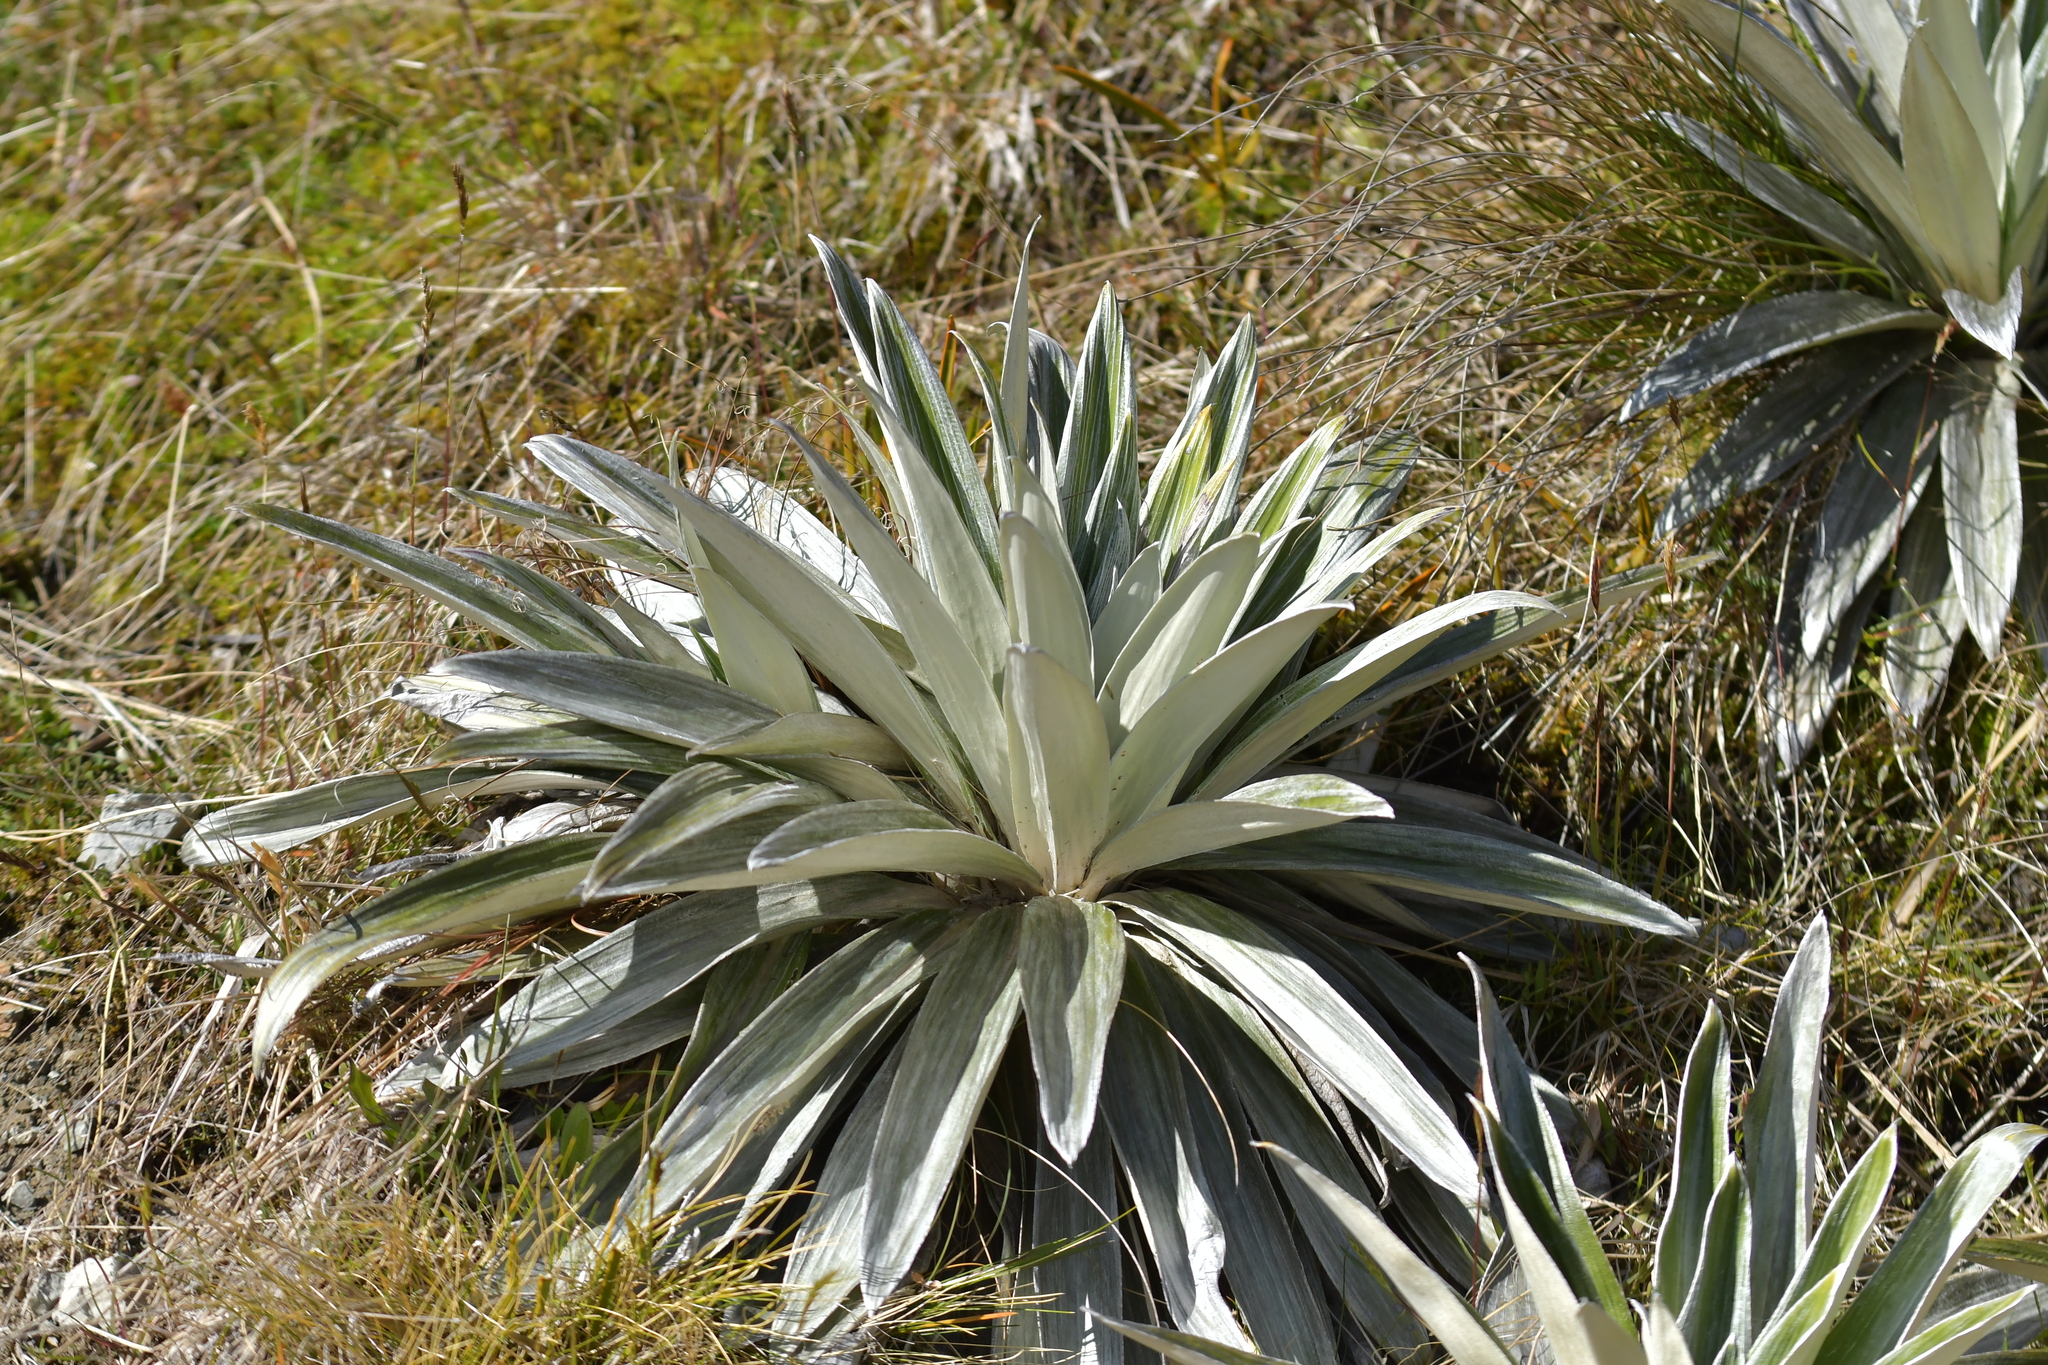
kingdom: Plantae
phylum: Tracheophyta
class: Magnoliopsida
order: Asterales
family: Asteraceae
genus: Celmisia
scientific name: Celmisia semicordata
